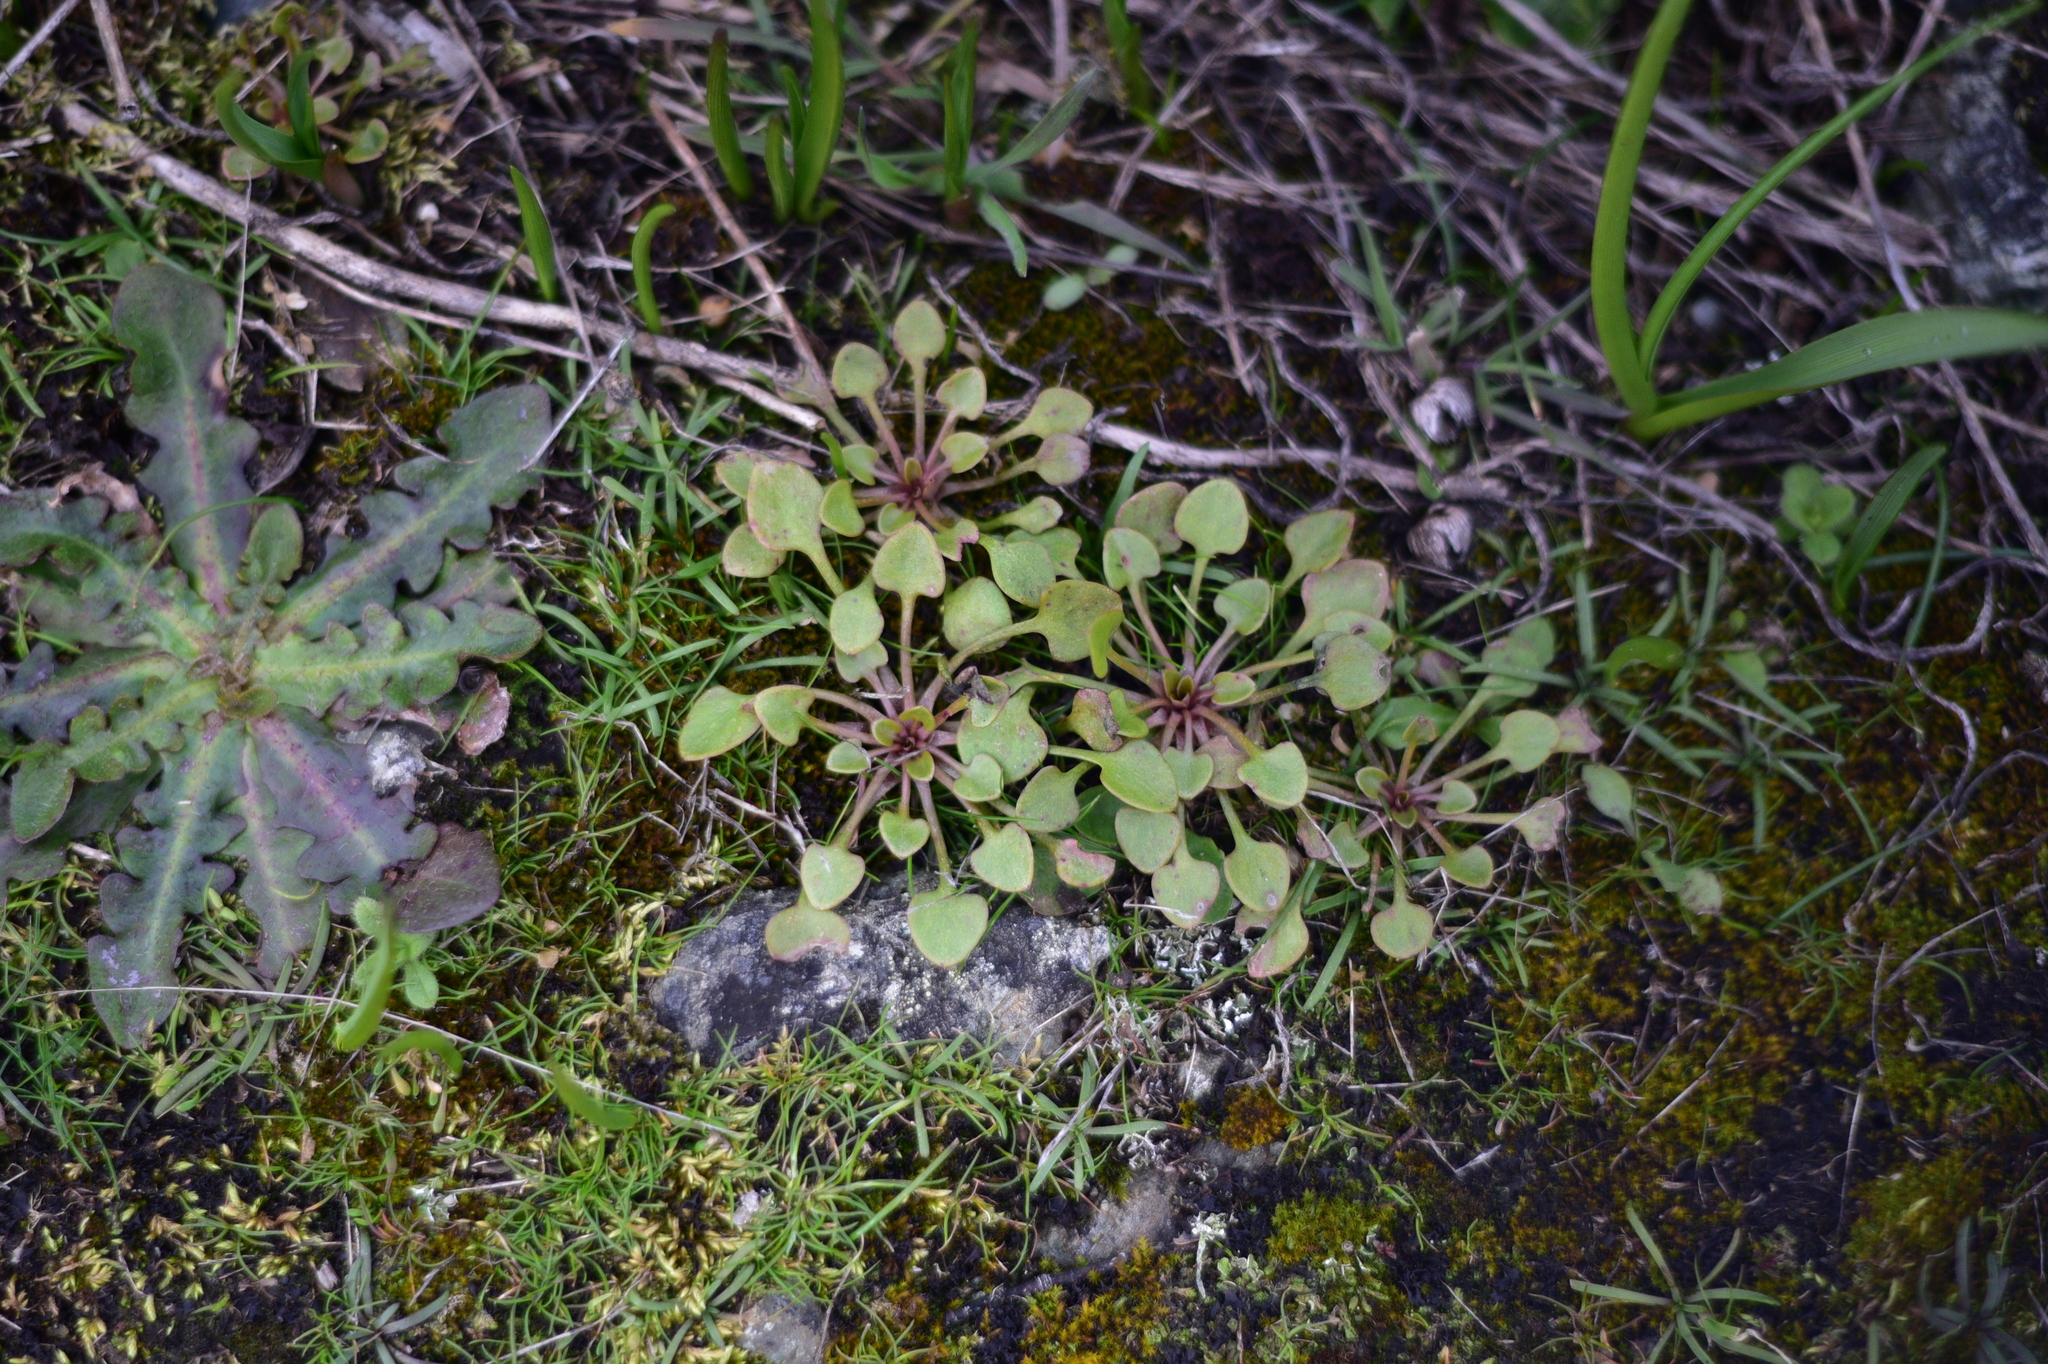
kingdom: Plantae
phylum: Tracheophyta
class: Magnoliopsida
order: Caryophyllales
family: Montiaceae
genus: Claytonia
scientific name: Claytonia rubra
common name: Erubescent miner's-lettuce
